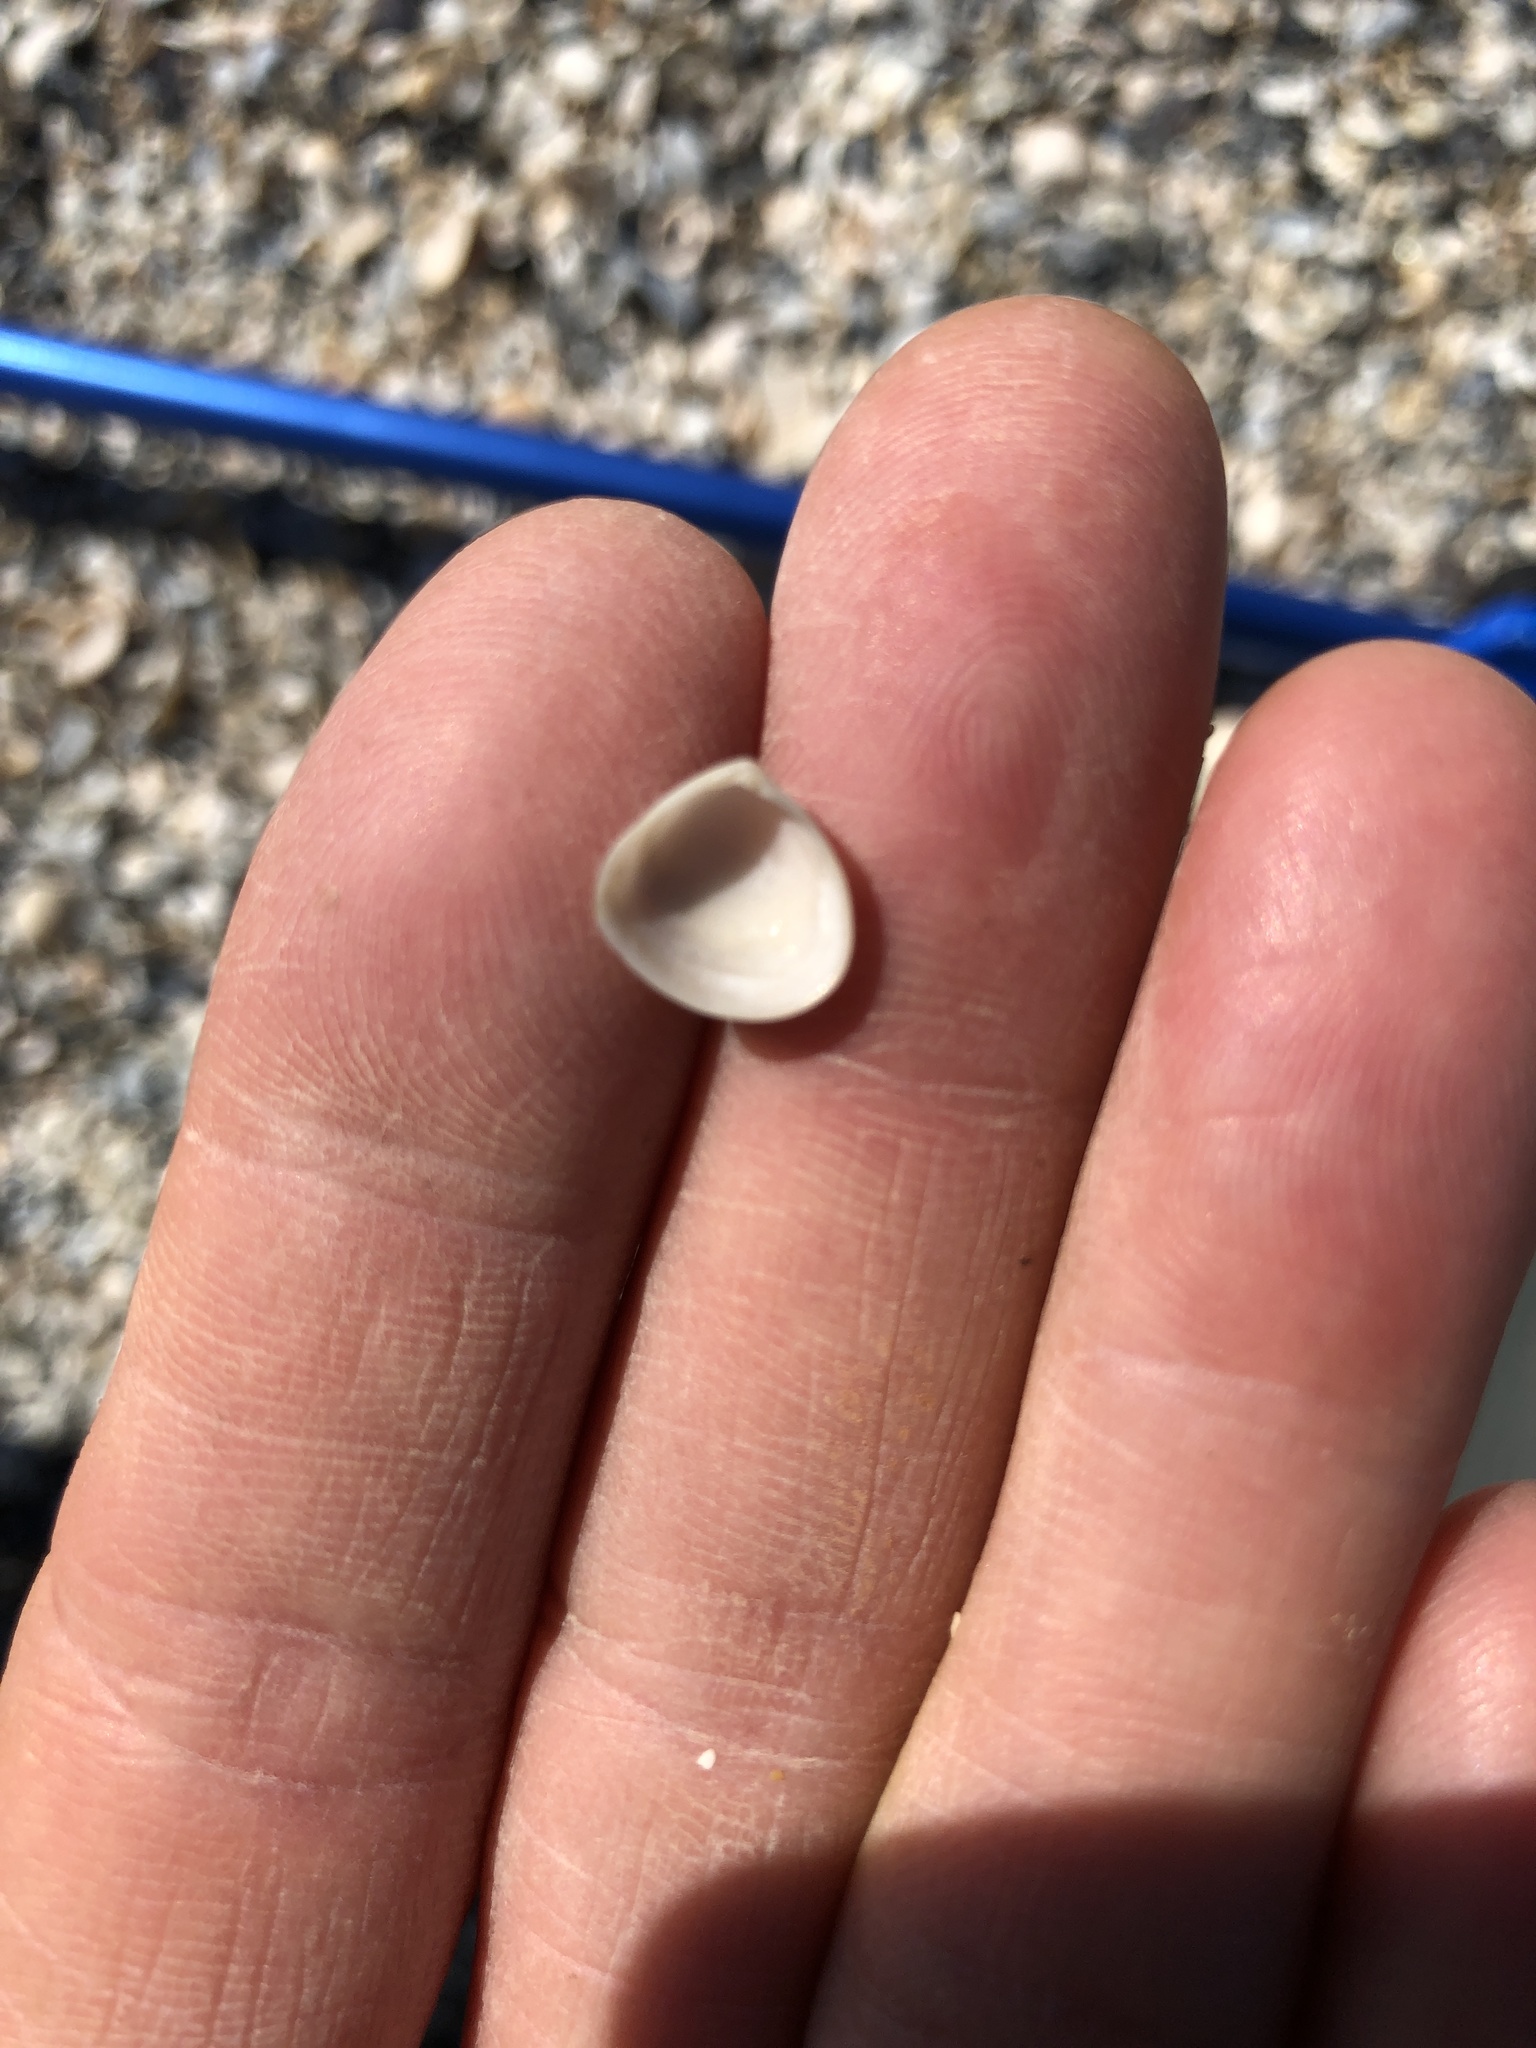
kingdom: Animalia
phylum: Mollusca
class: Bivalvia
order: Venerida
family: Mactridae
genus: Mulinia
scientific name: Mulinia lateralis
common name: Dwarf surfclam
